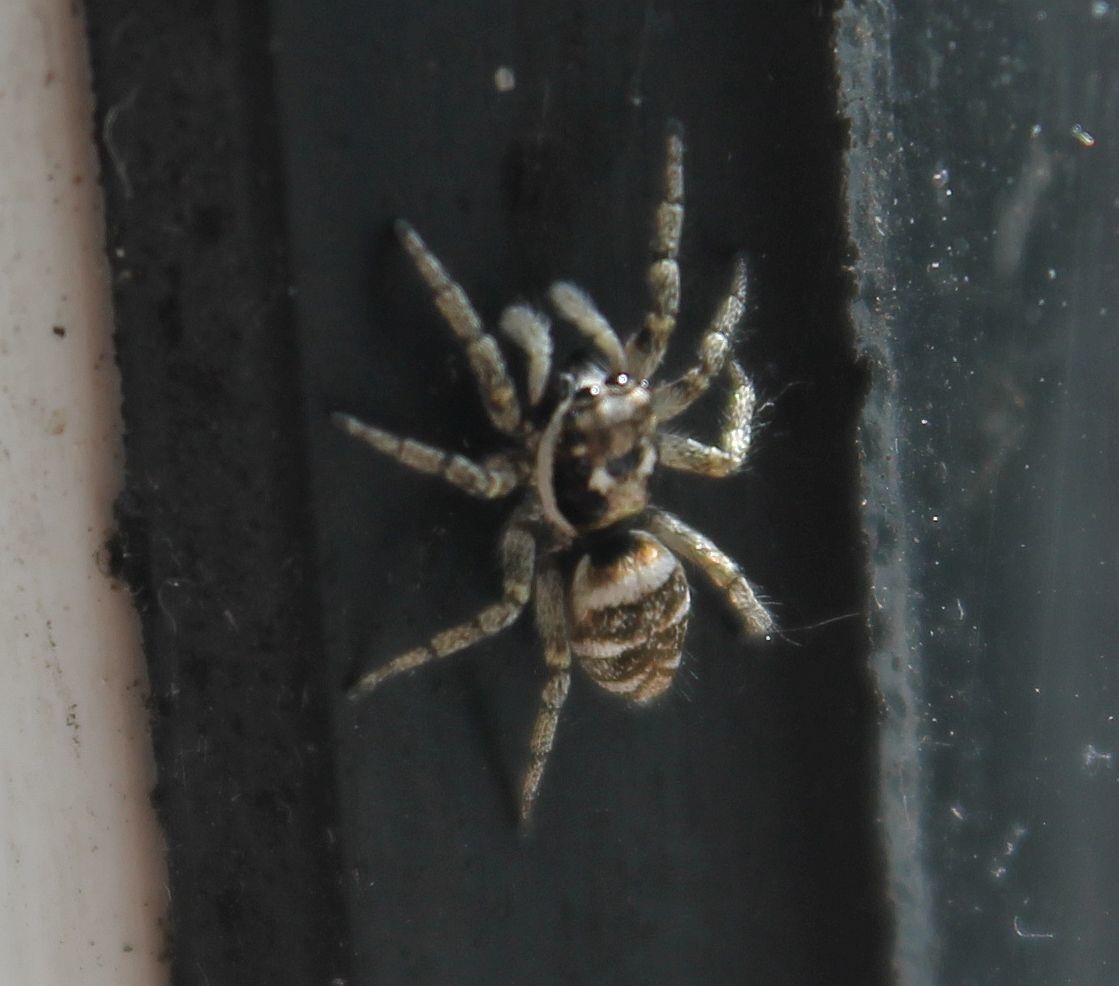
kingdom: Animalia
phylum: Arthropoda
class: Arachnida
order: Araneae
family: Salticidae
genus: Salticus
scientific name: Salticus scenicus
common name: Zebra jumper
